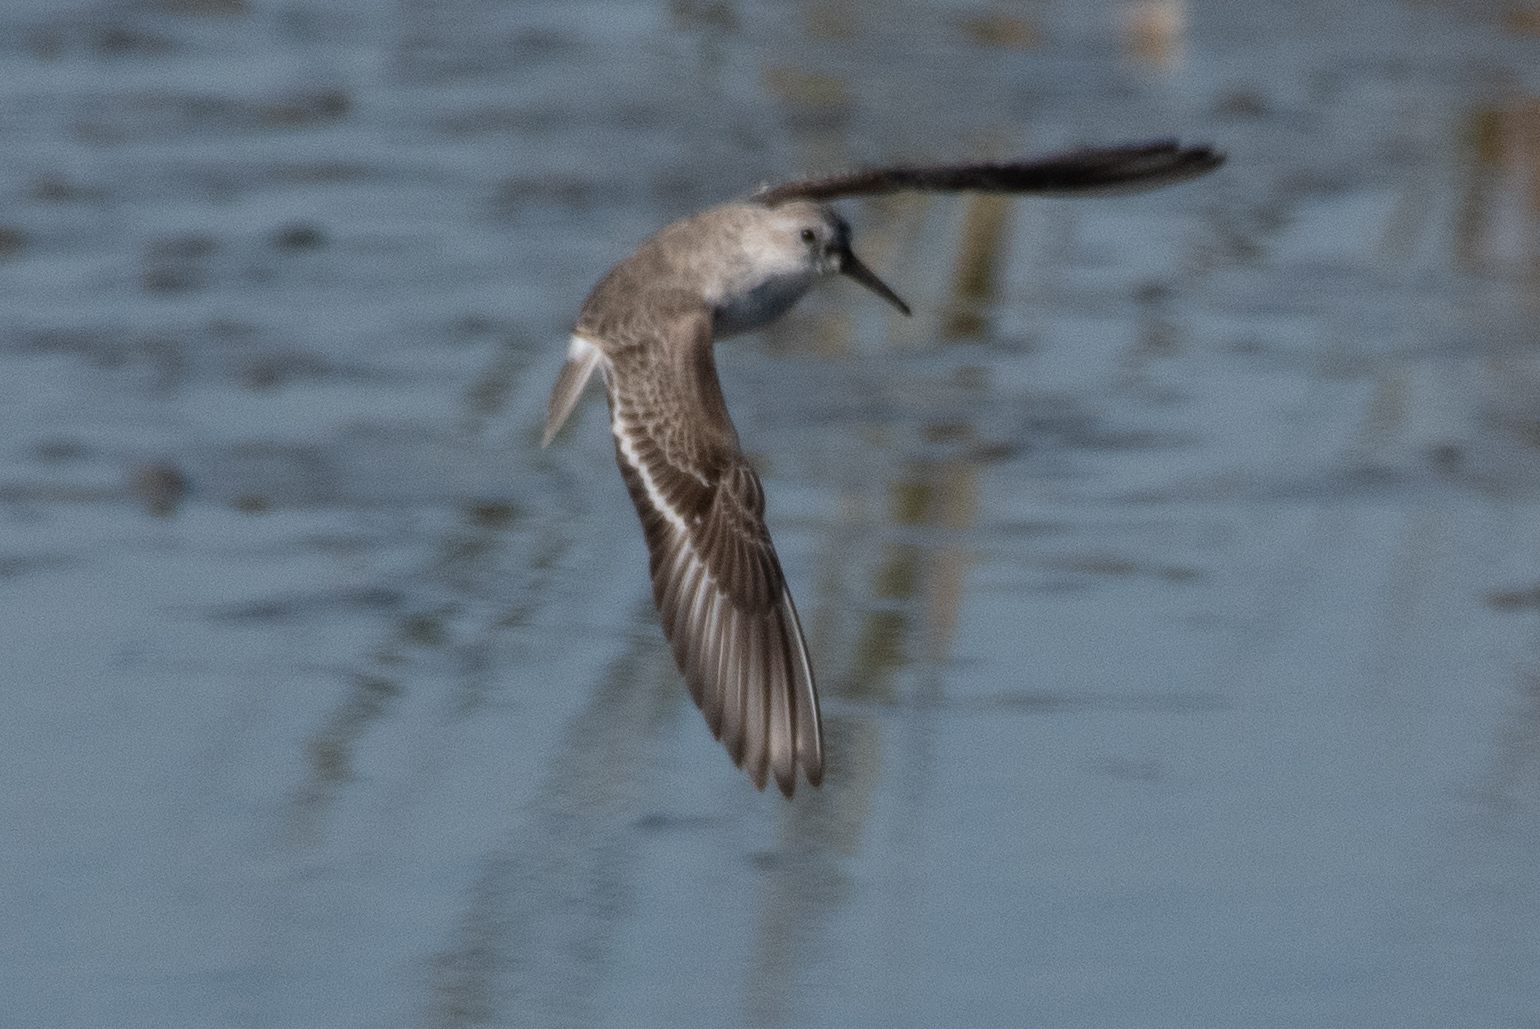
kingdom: Animalia
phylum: Chordata
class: Aves
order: Charadriiformes
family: Scolopacidae
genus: Calidris
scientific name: Calidris mauri
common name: Western sandpiper
